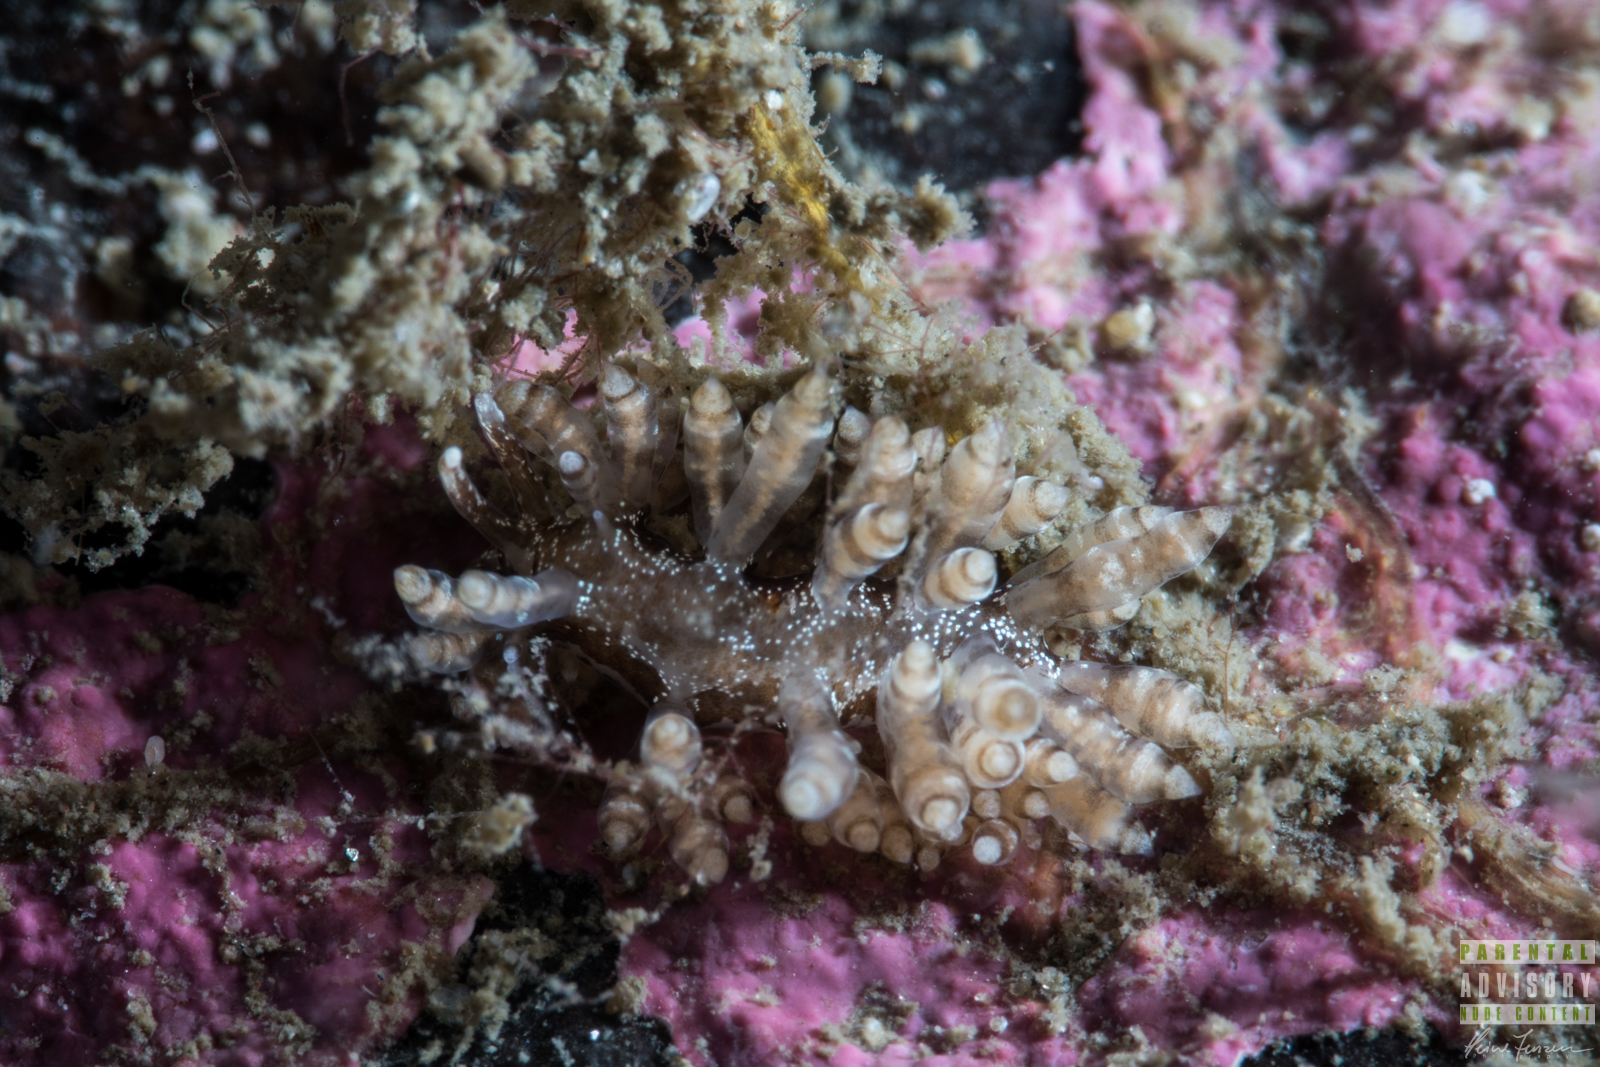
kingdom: Animalia
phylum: Mollusca
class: Gastropoda
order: Nudibranchia
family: Eubranchidae
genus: Eubranchus
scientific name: Eubranchus vittatus
